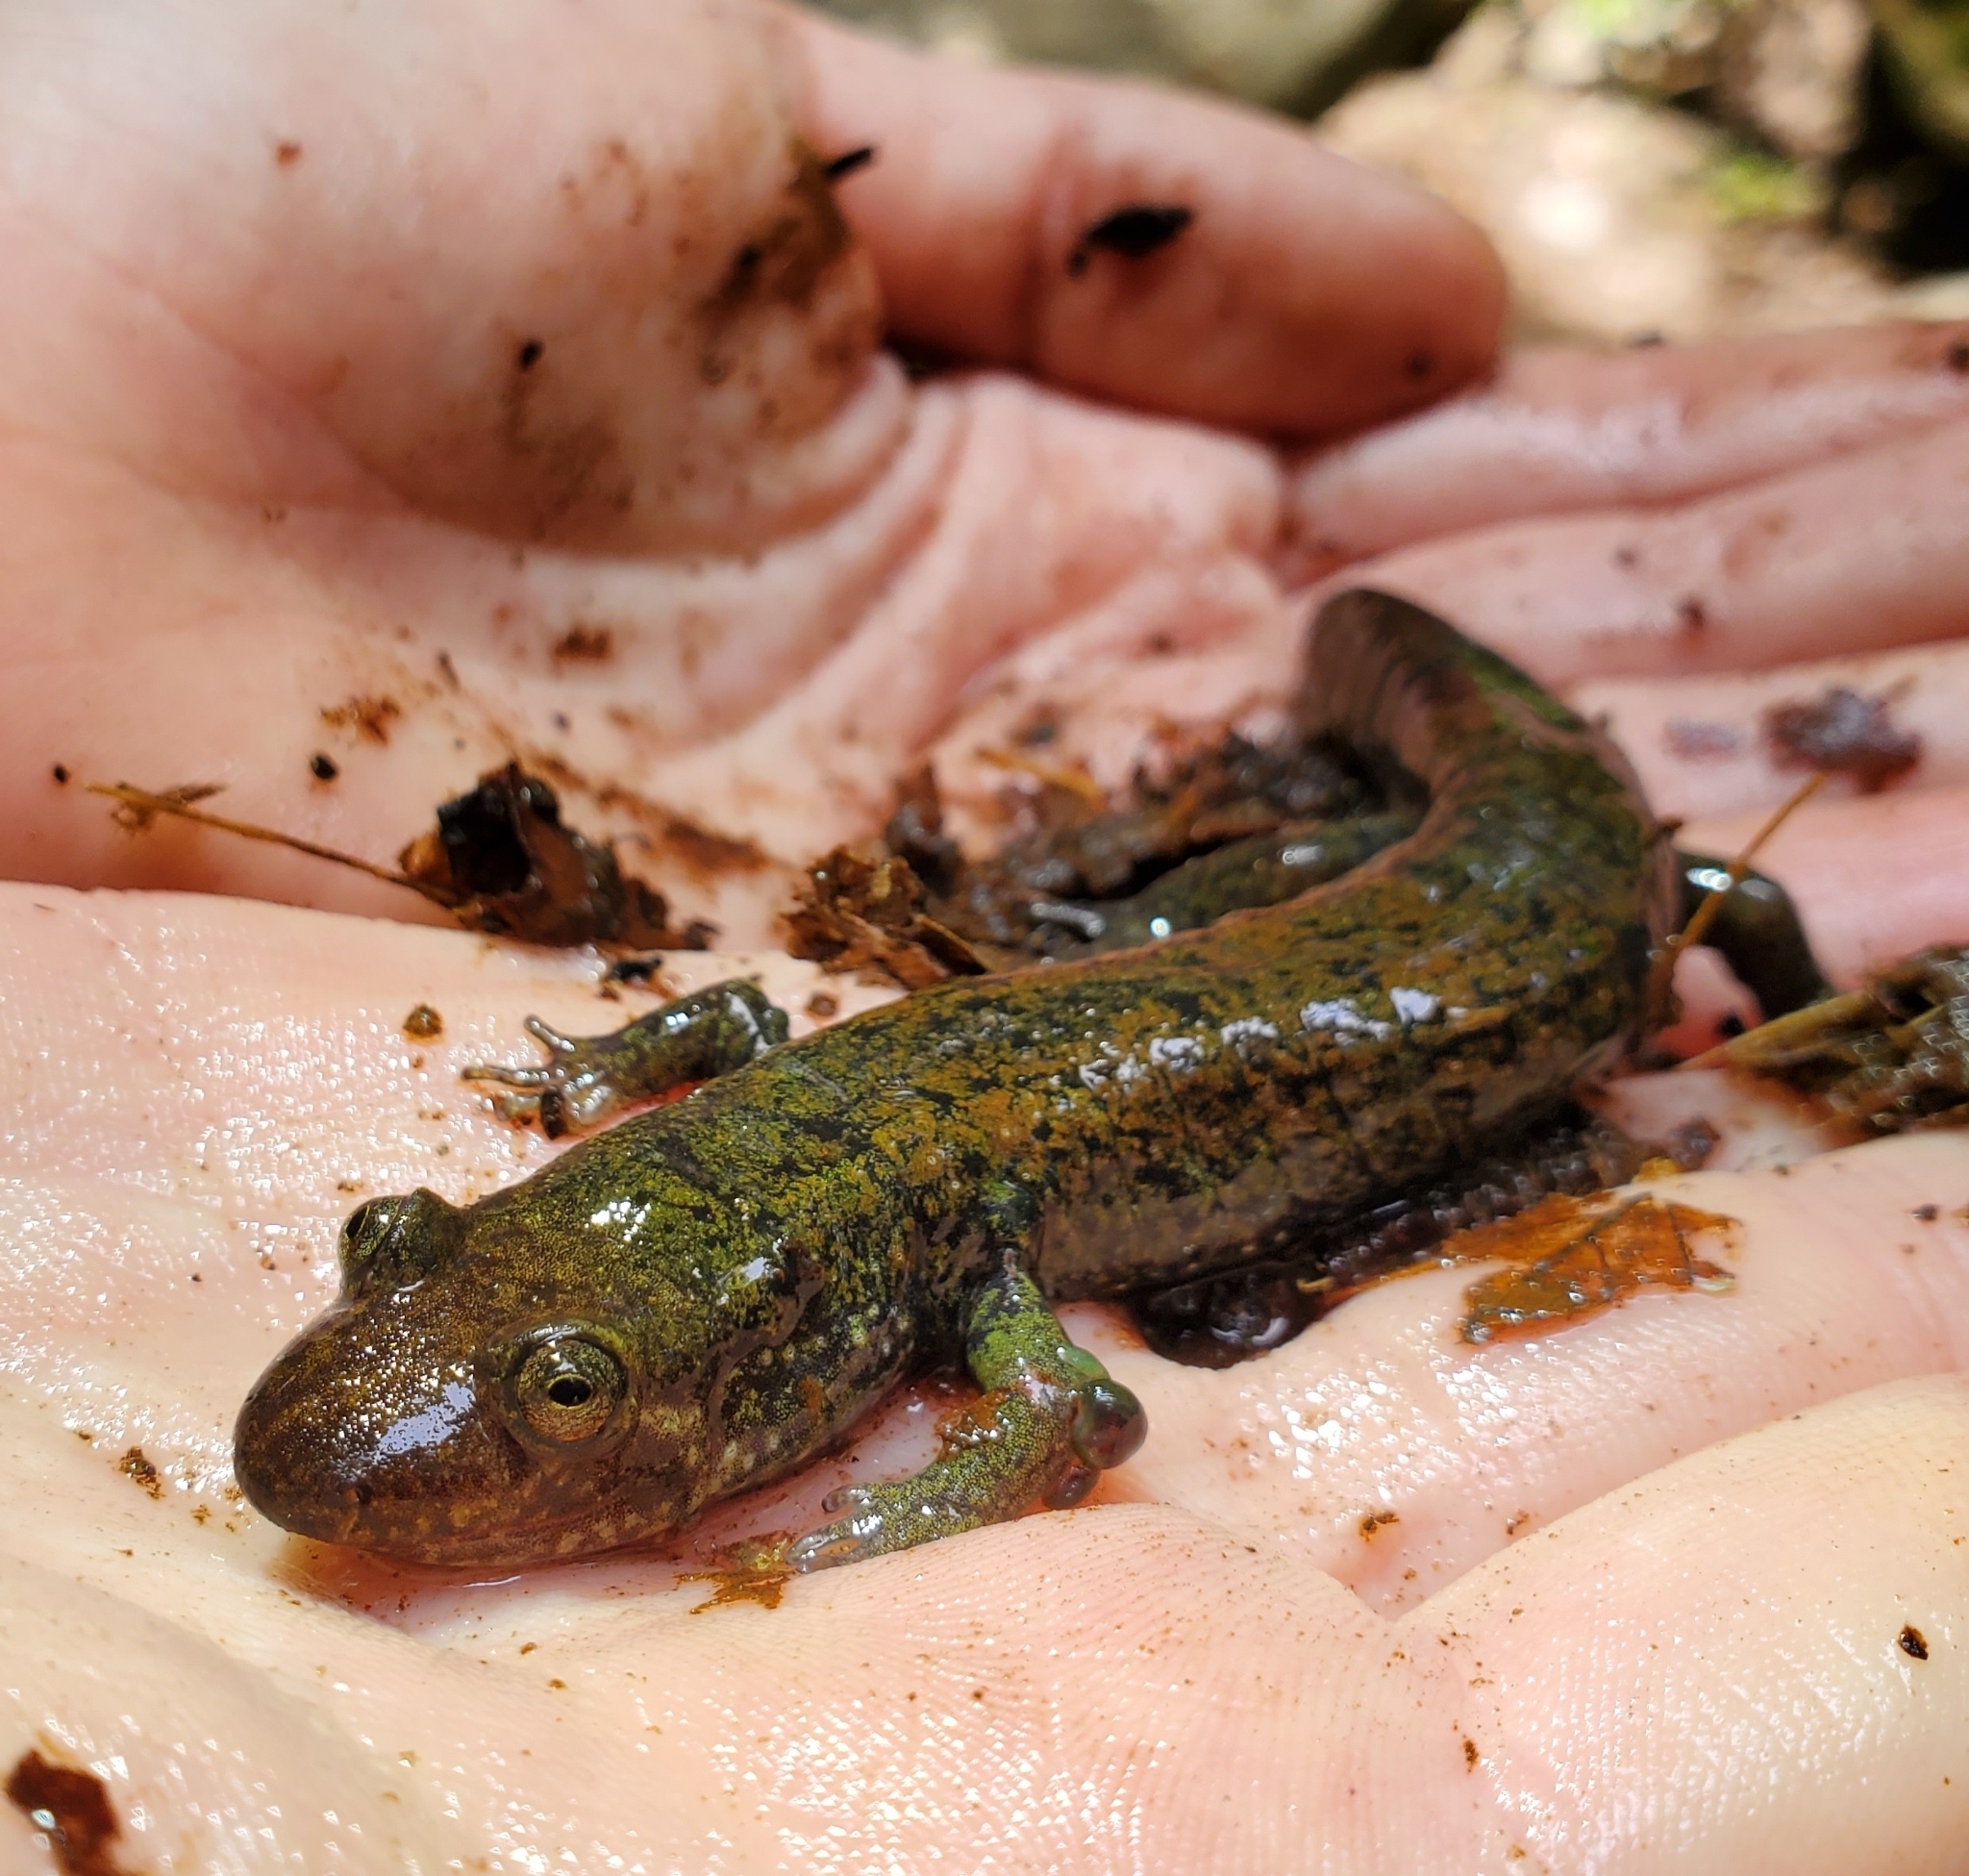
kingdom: Animalia
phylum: Chordata
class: Amphibia
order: Caudata
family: Plethodontidae
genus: Desmognathus
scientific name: Desmognathus
